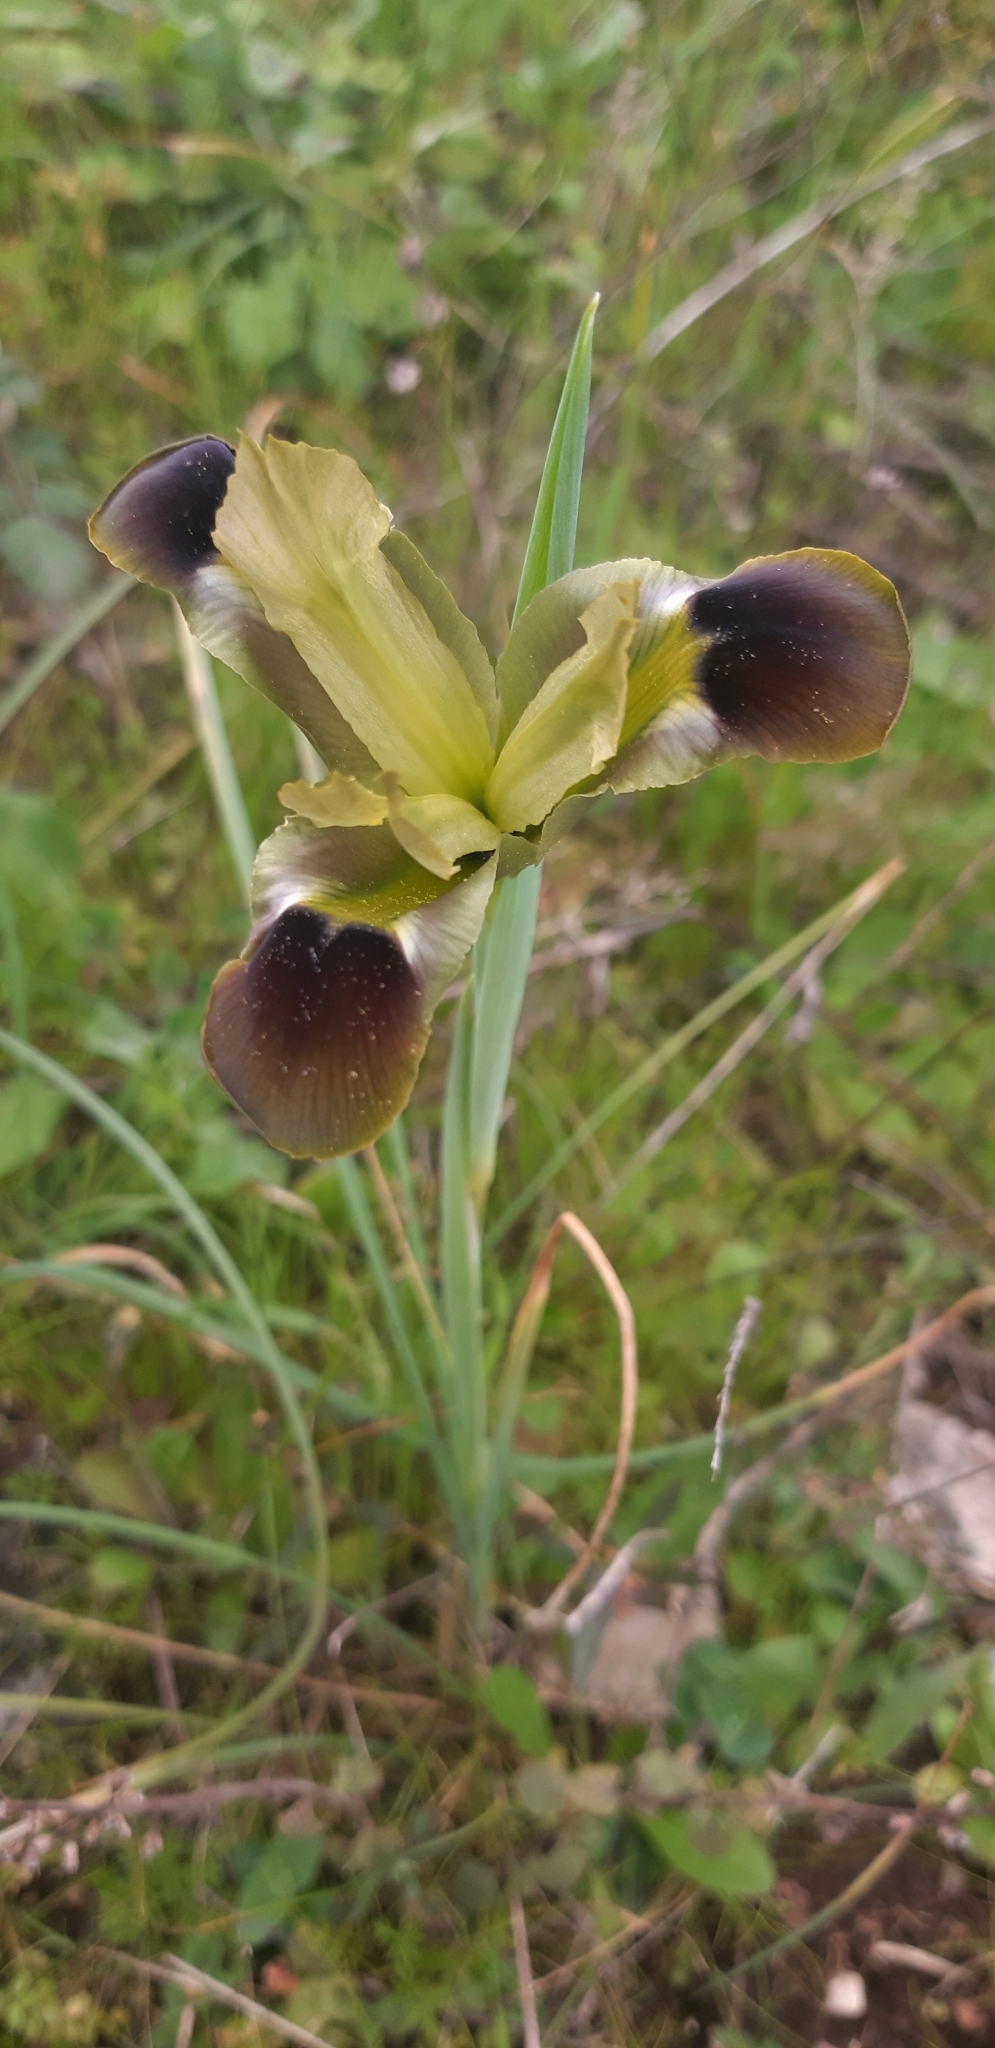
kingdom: Plantae
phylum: Tracheophyta
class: Liliopsida
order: Asparagales
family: Iridaceae
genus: Iris
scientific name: Iris tuberosa
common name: Snake's-head iris
